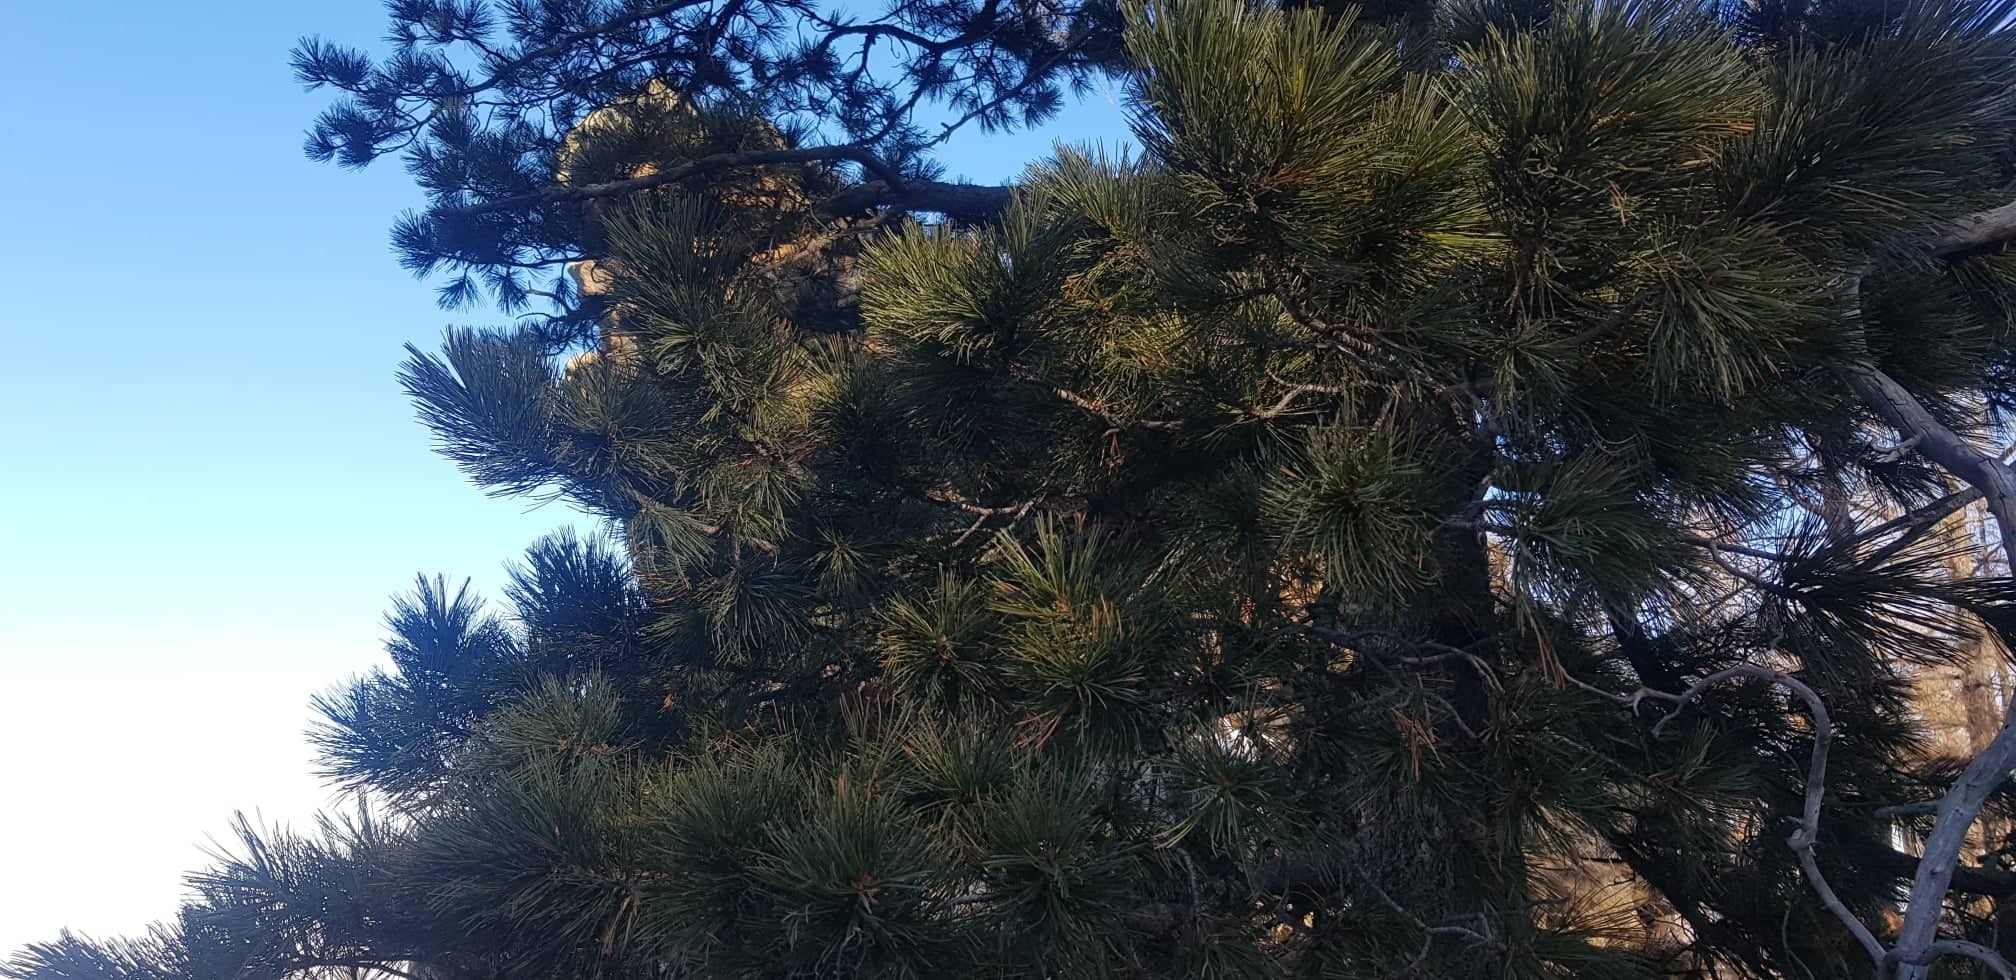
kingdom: Plantae
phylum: Tracheophyta
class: Pinopsida
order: Pinales
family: Pinaceae
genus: Pinus
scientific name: Pinus sibirica
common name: Siberian pine
